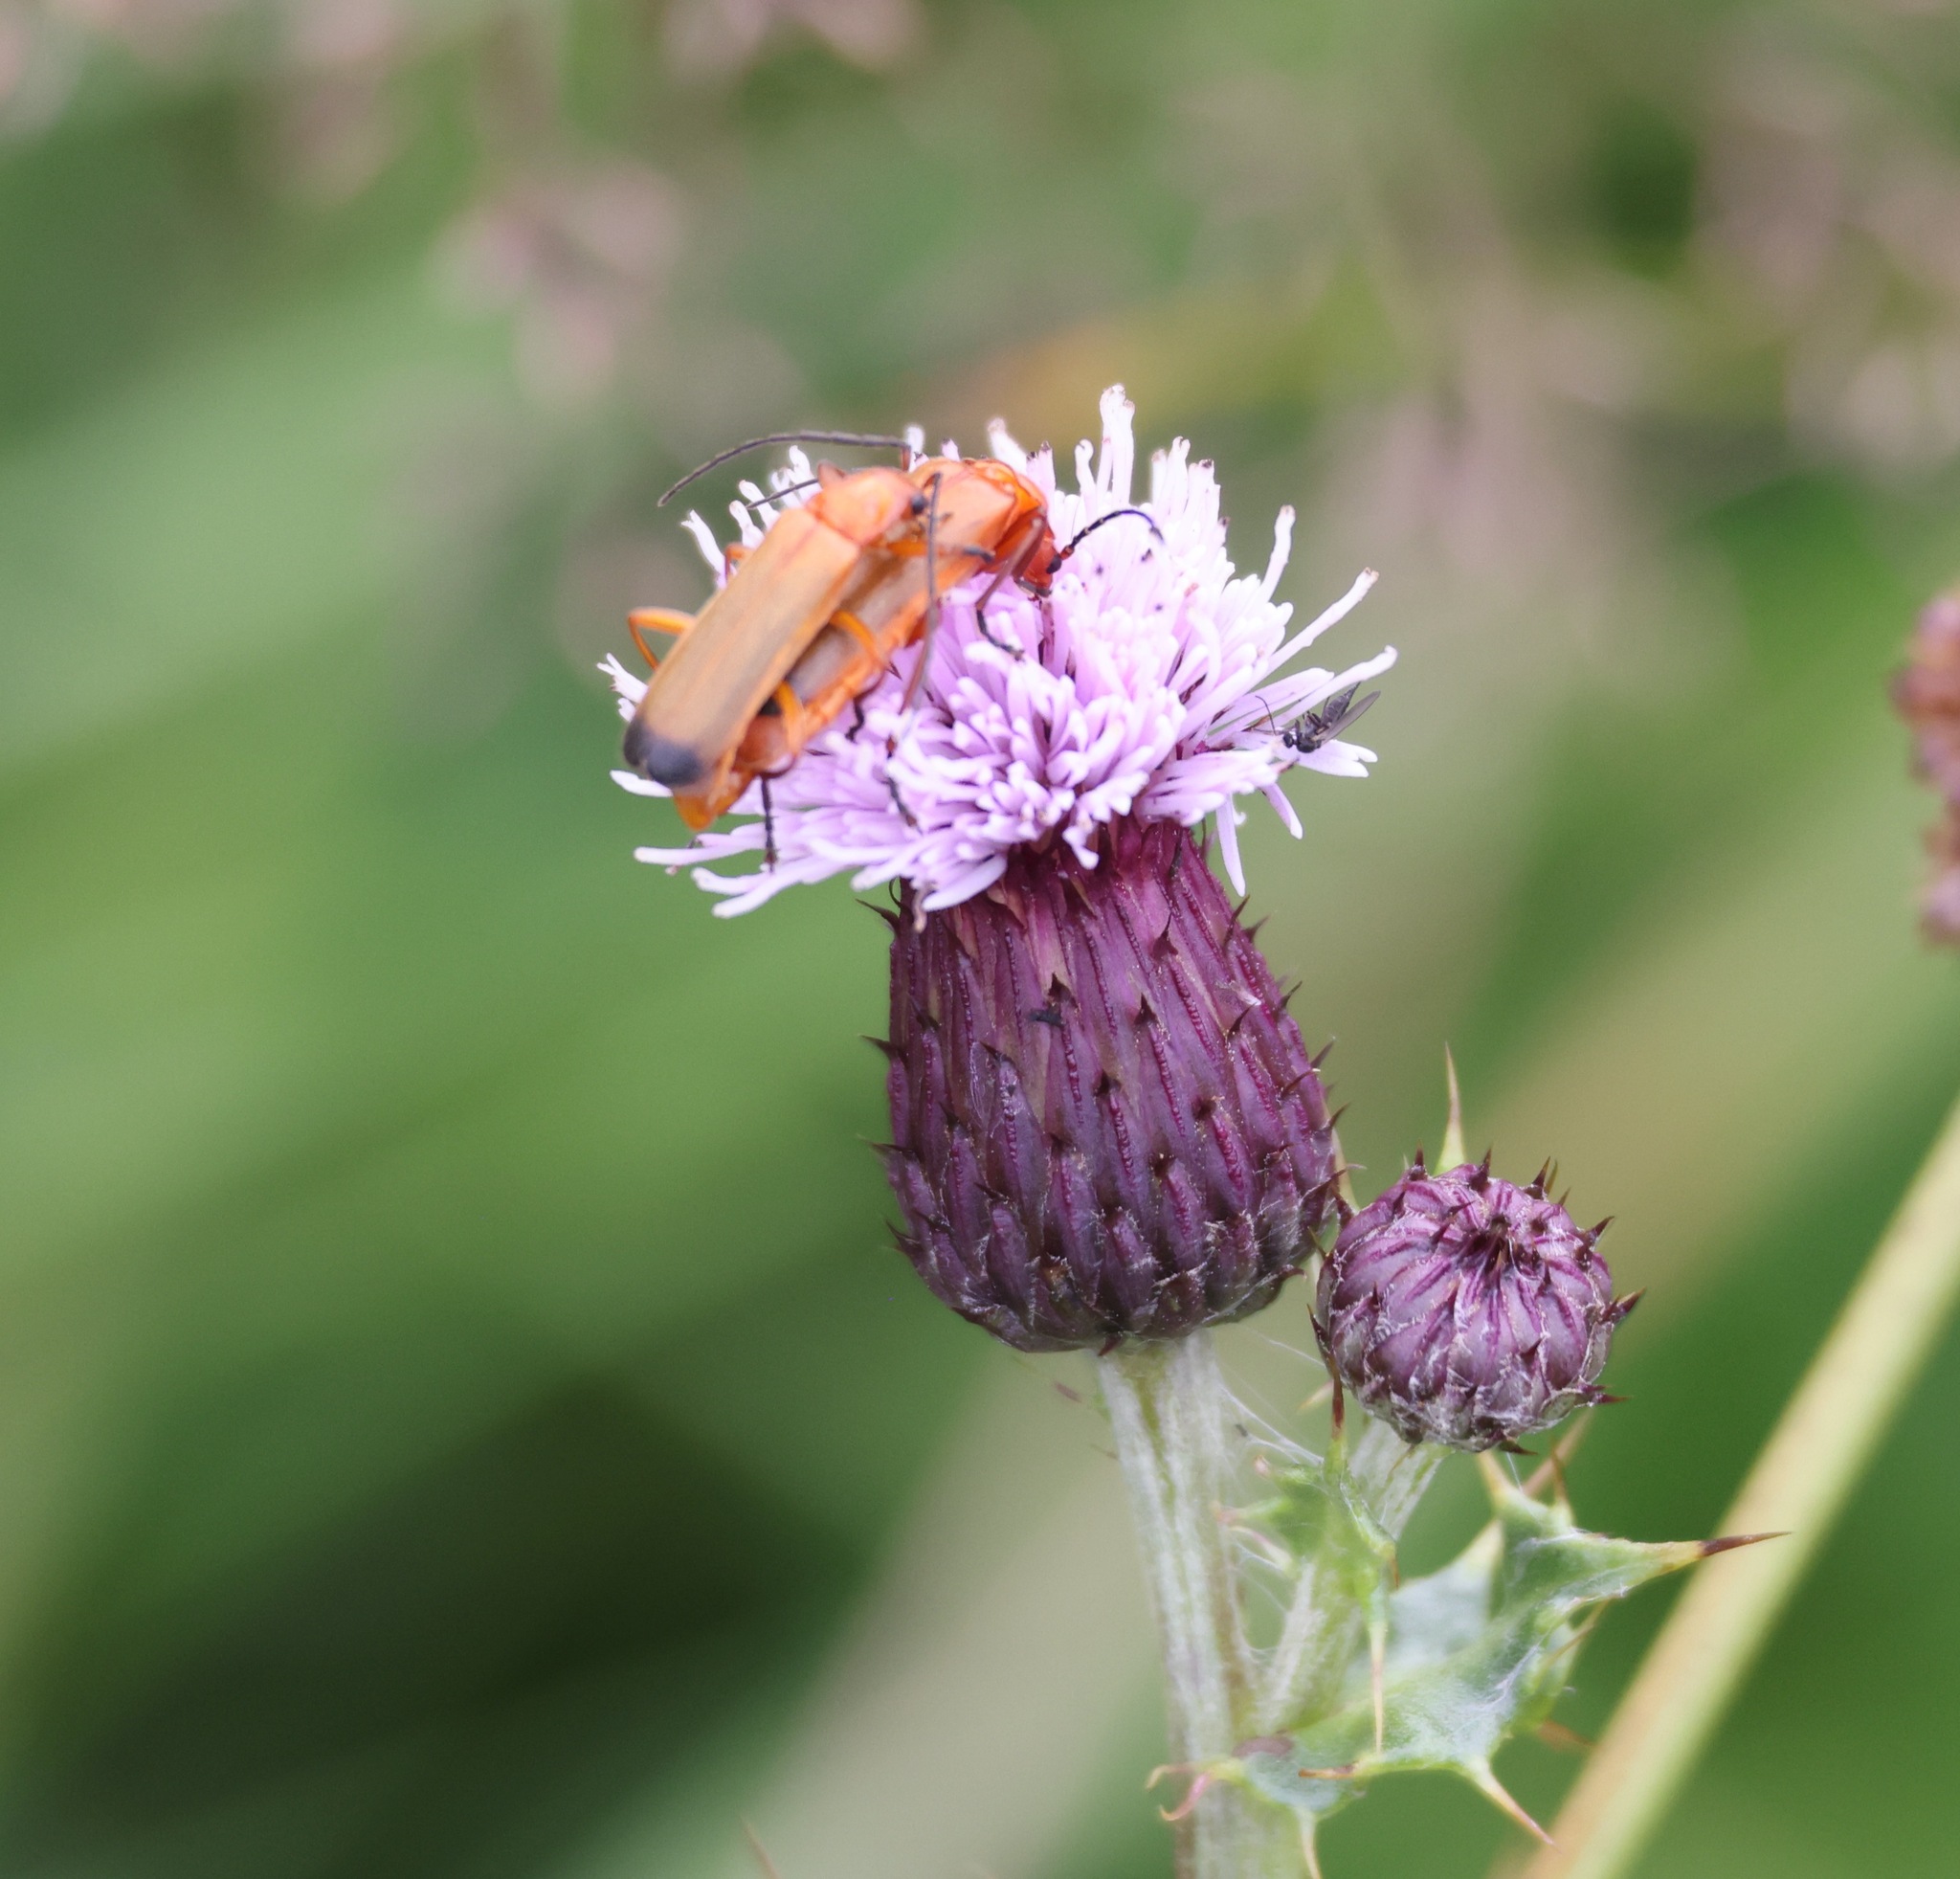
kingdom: Animalia
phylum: Arthropoda
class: Insecta
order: Coleoptera
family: Cantharidae
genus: Rhagonycha
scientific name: Rhagonycha fulva
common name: Common red soldier beetle
